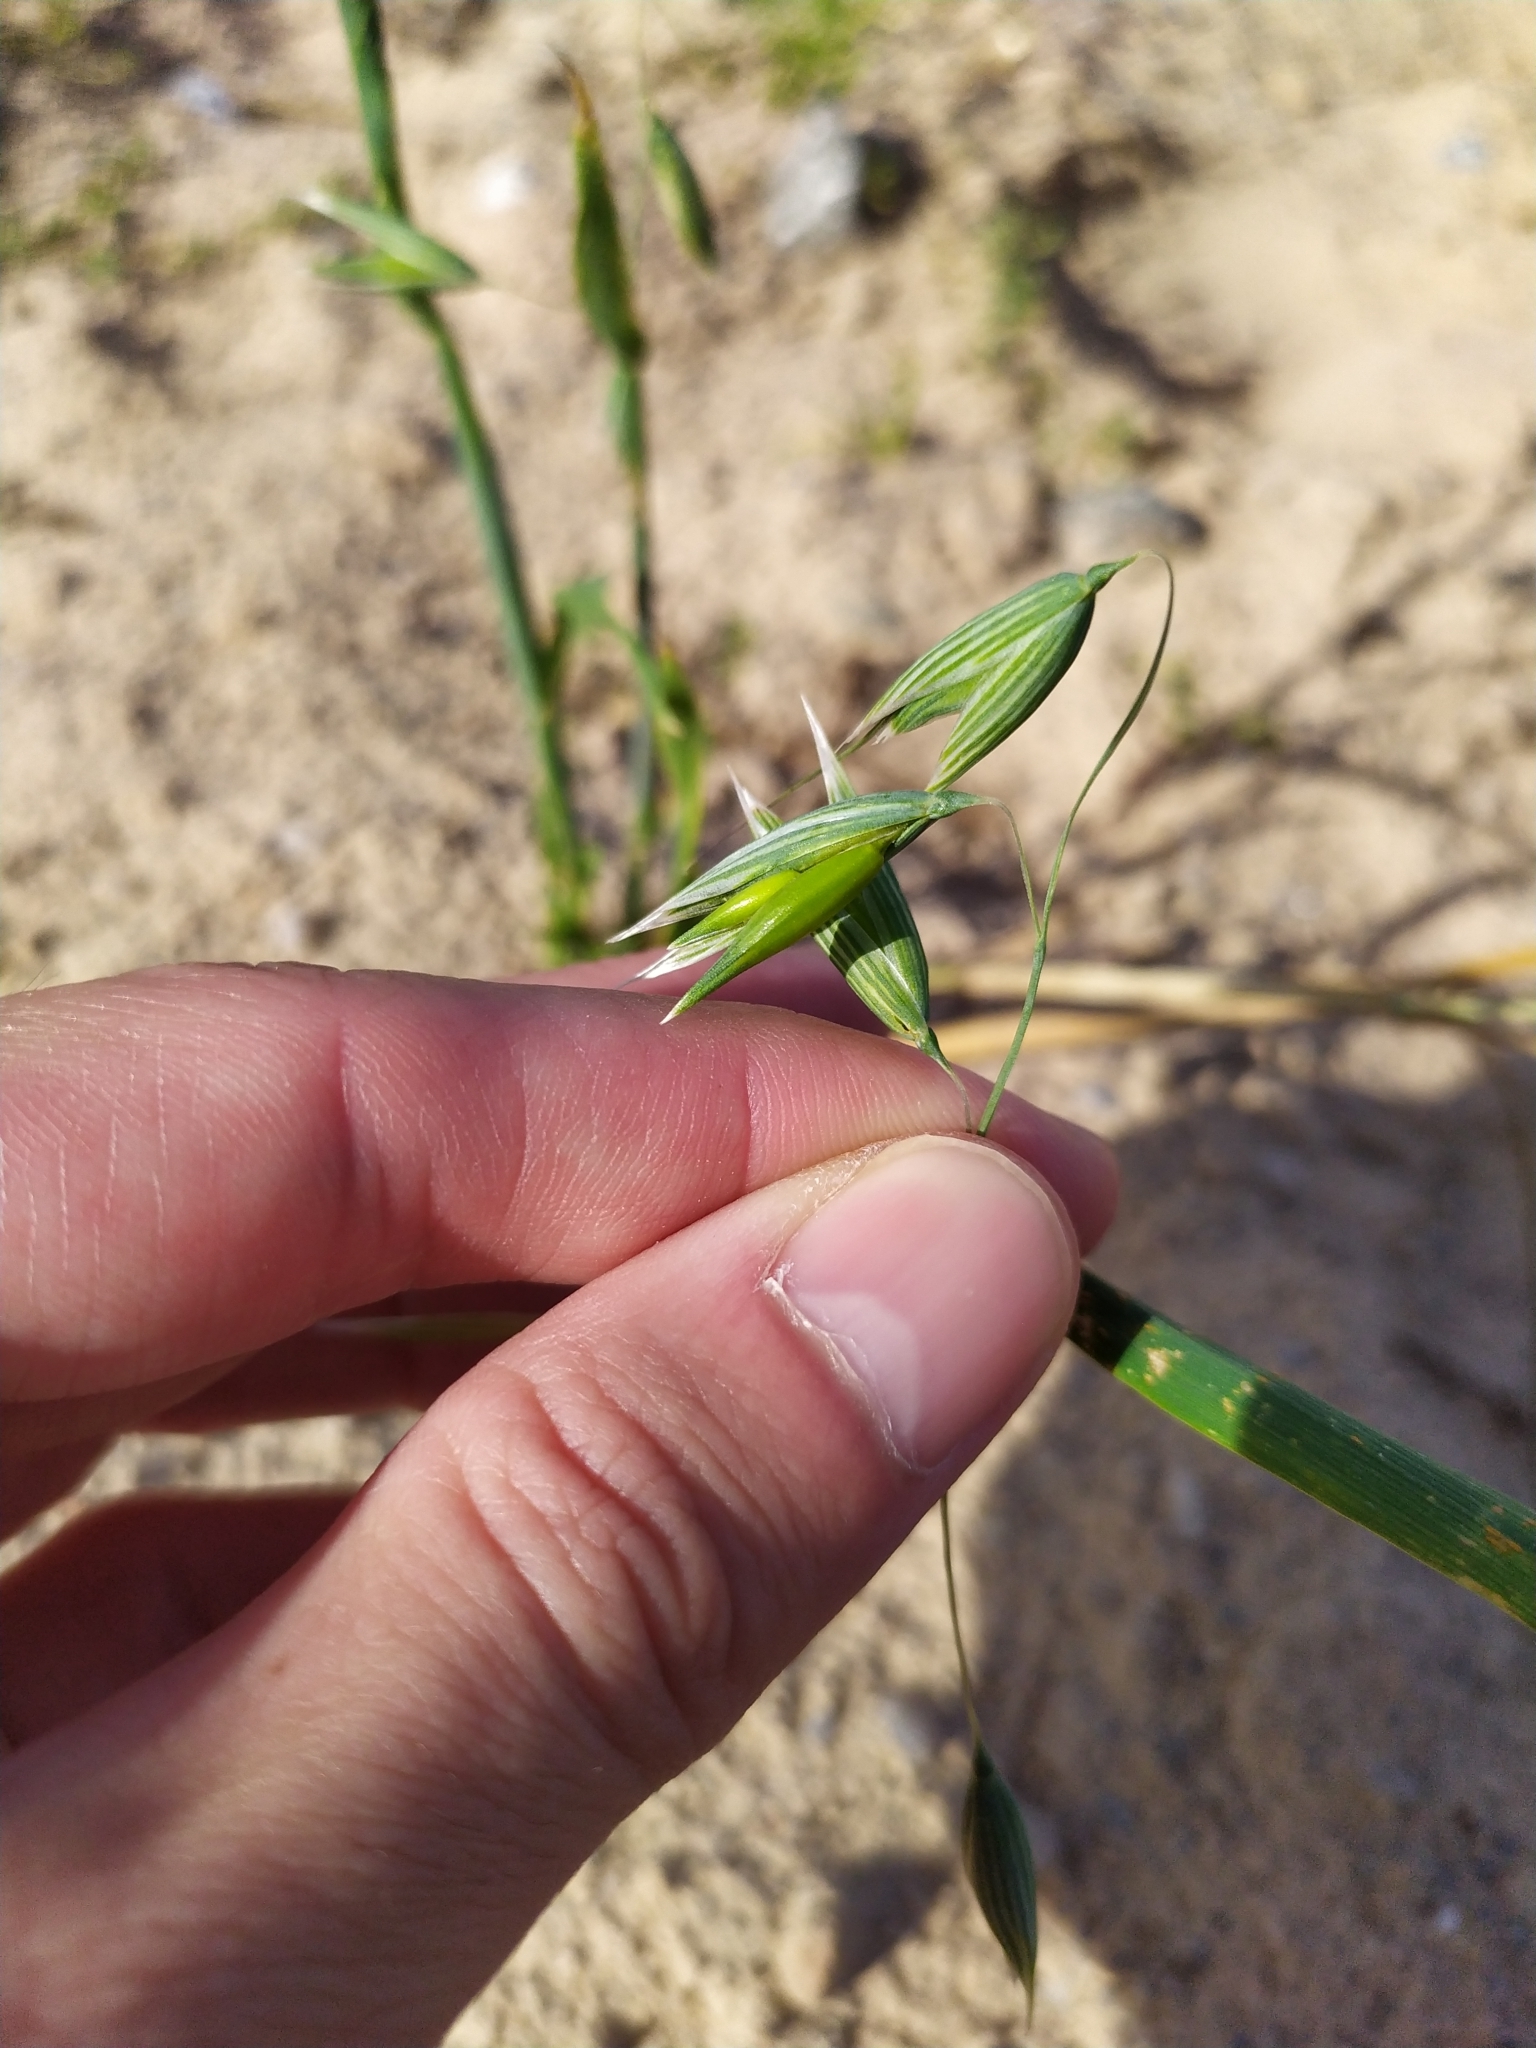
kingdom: Plantae
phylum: Tracheophyta
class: Liliopsida
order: Poales
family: Poaceae
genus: Avena
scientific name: Avena fatua
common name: Wild oat
